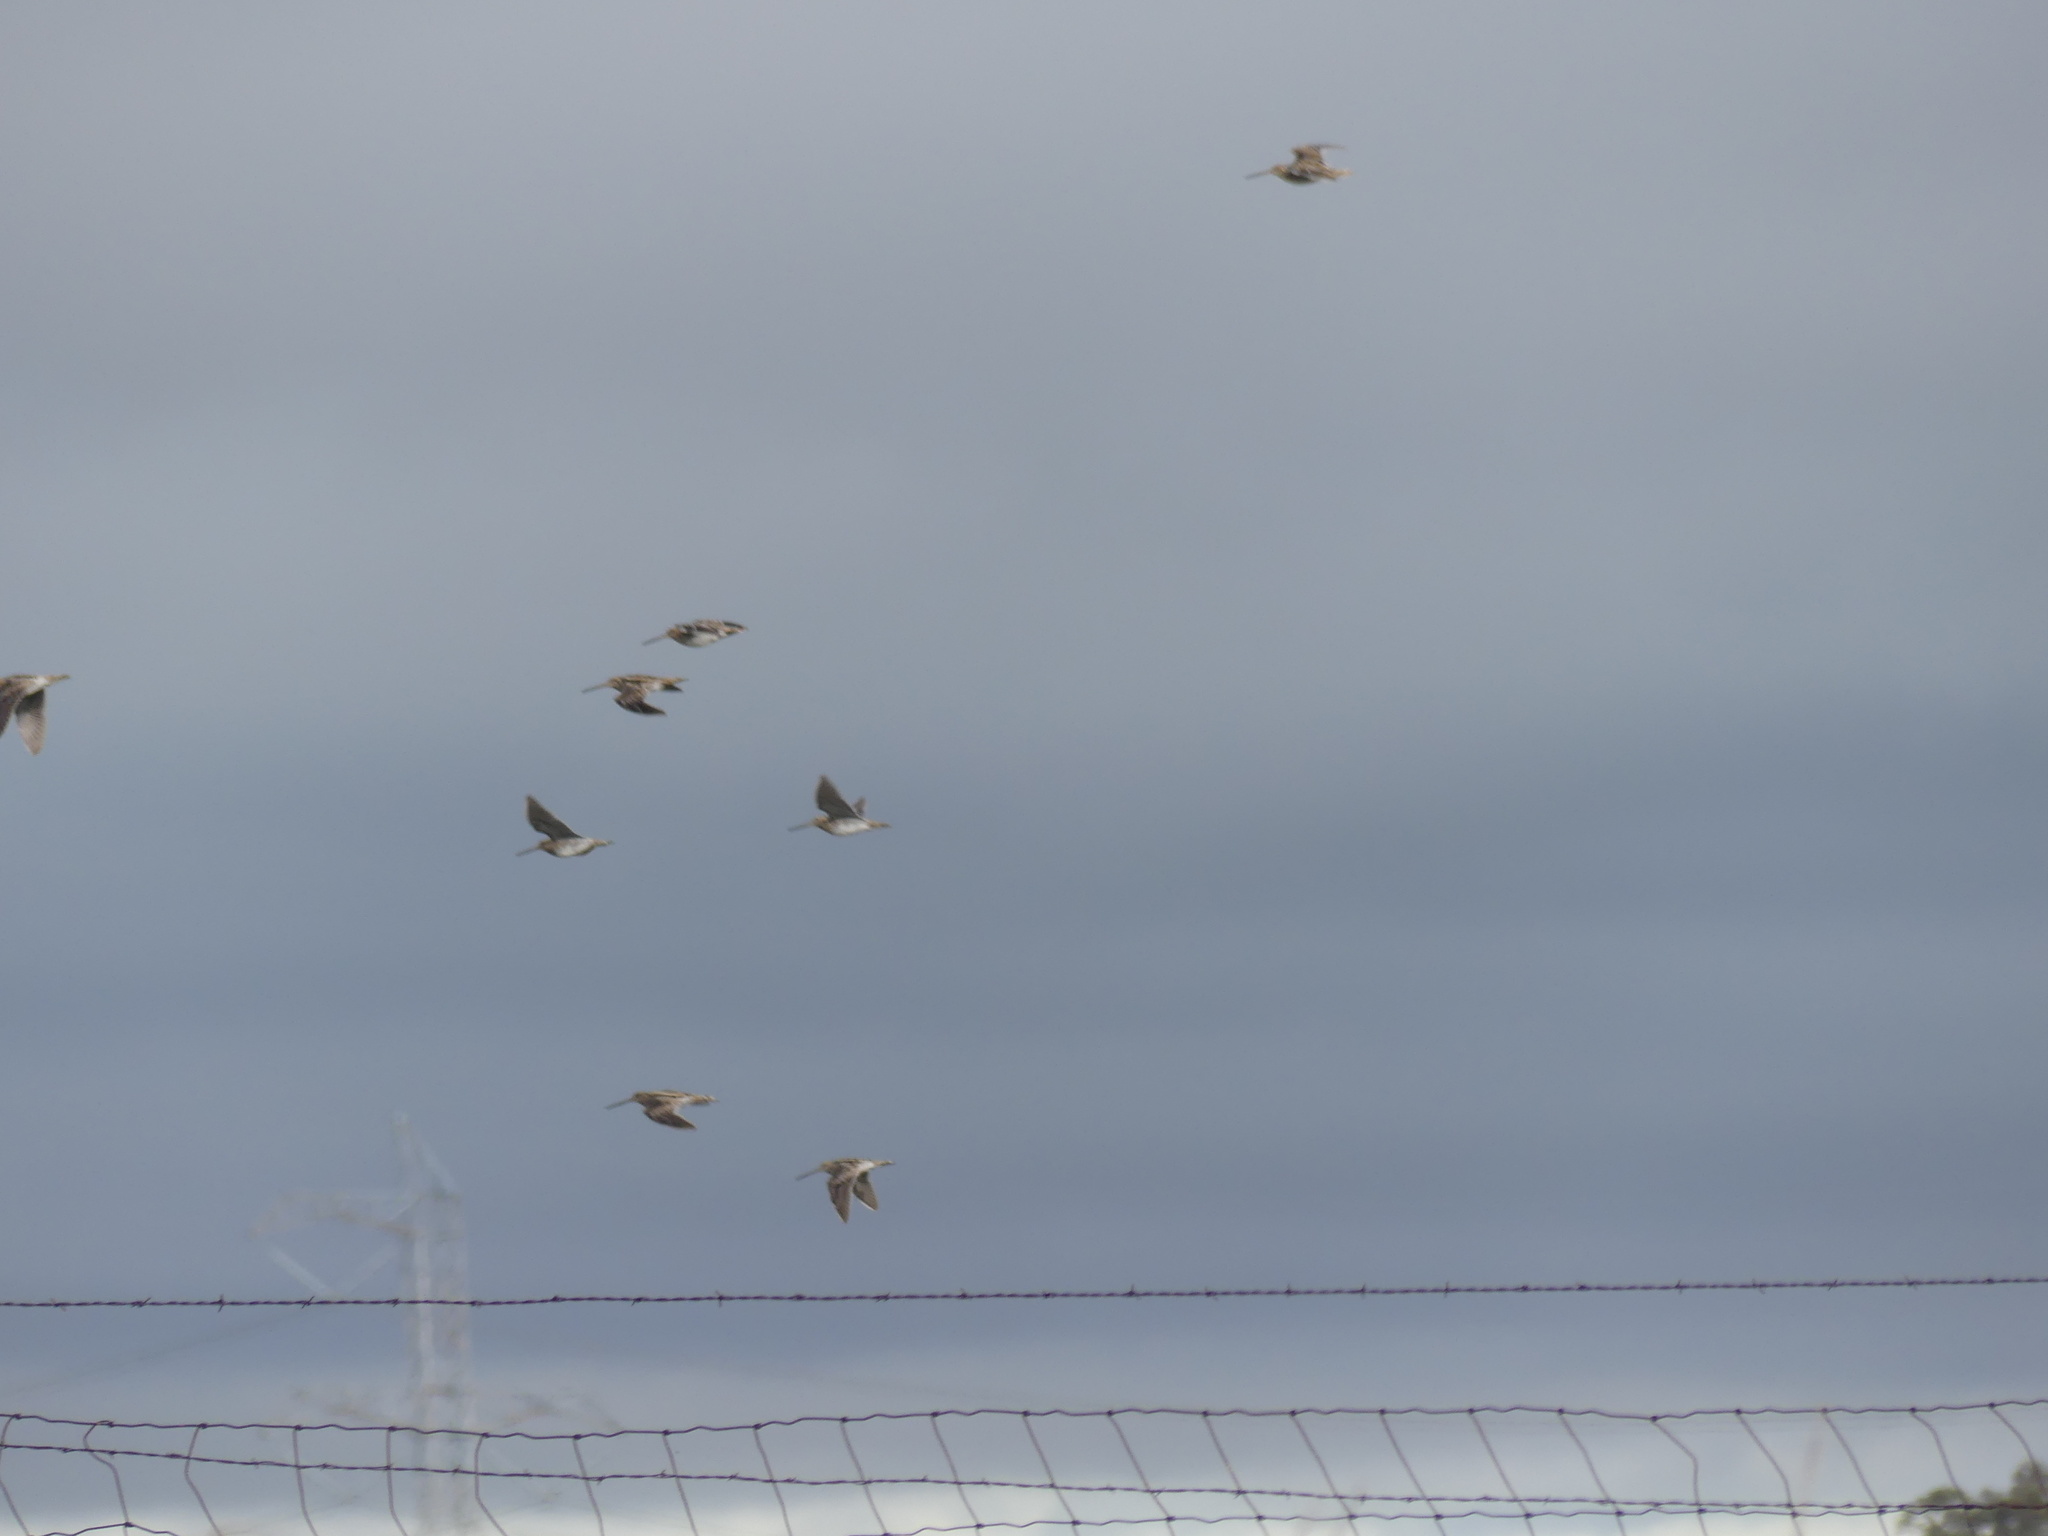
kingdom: Animalia
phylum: Chordata
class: Aves
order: Charadriiformes
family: Scolopacidae
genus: Gallinago
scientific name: Gallinago delicata
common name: Wilson's snipe
